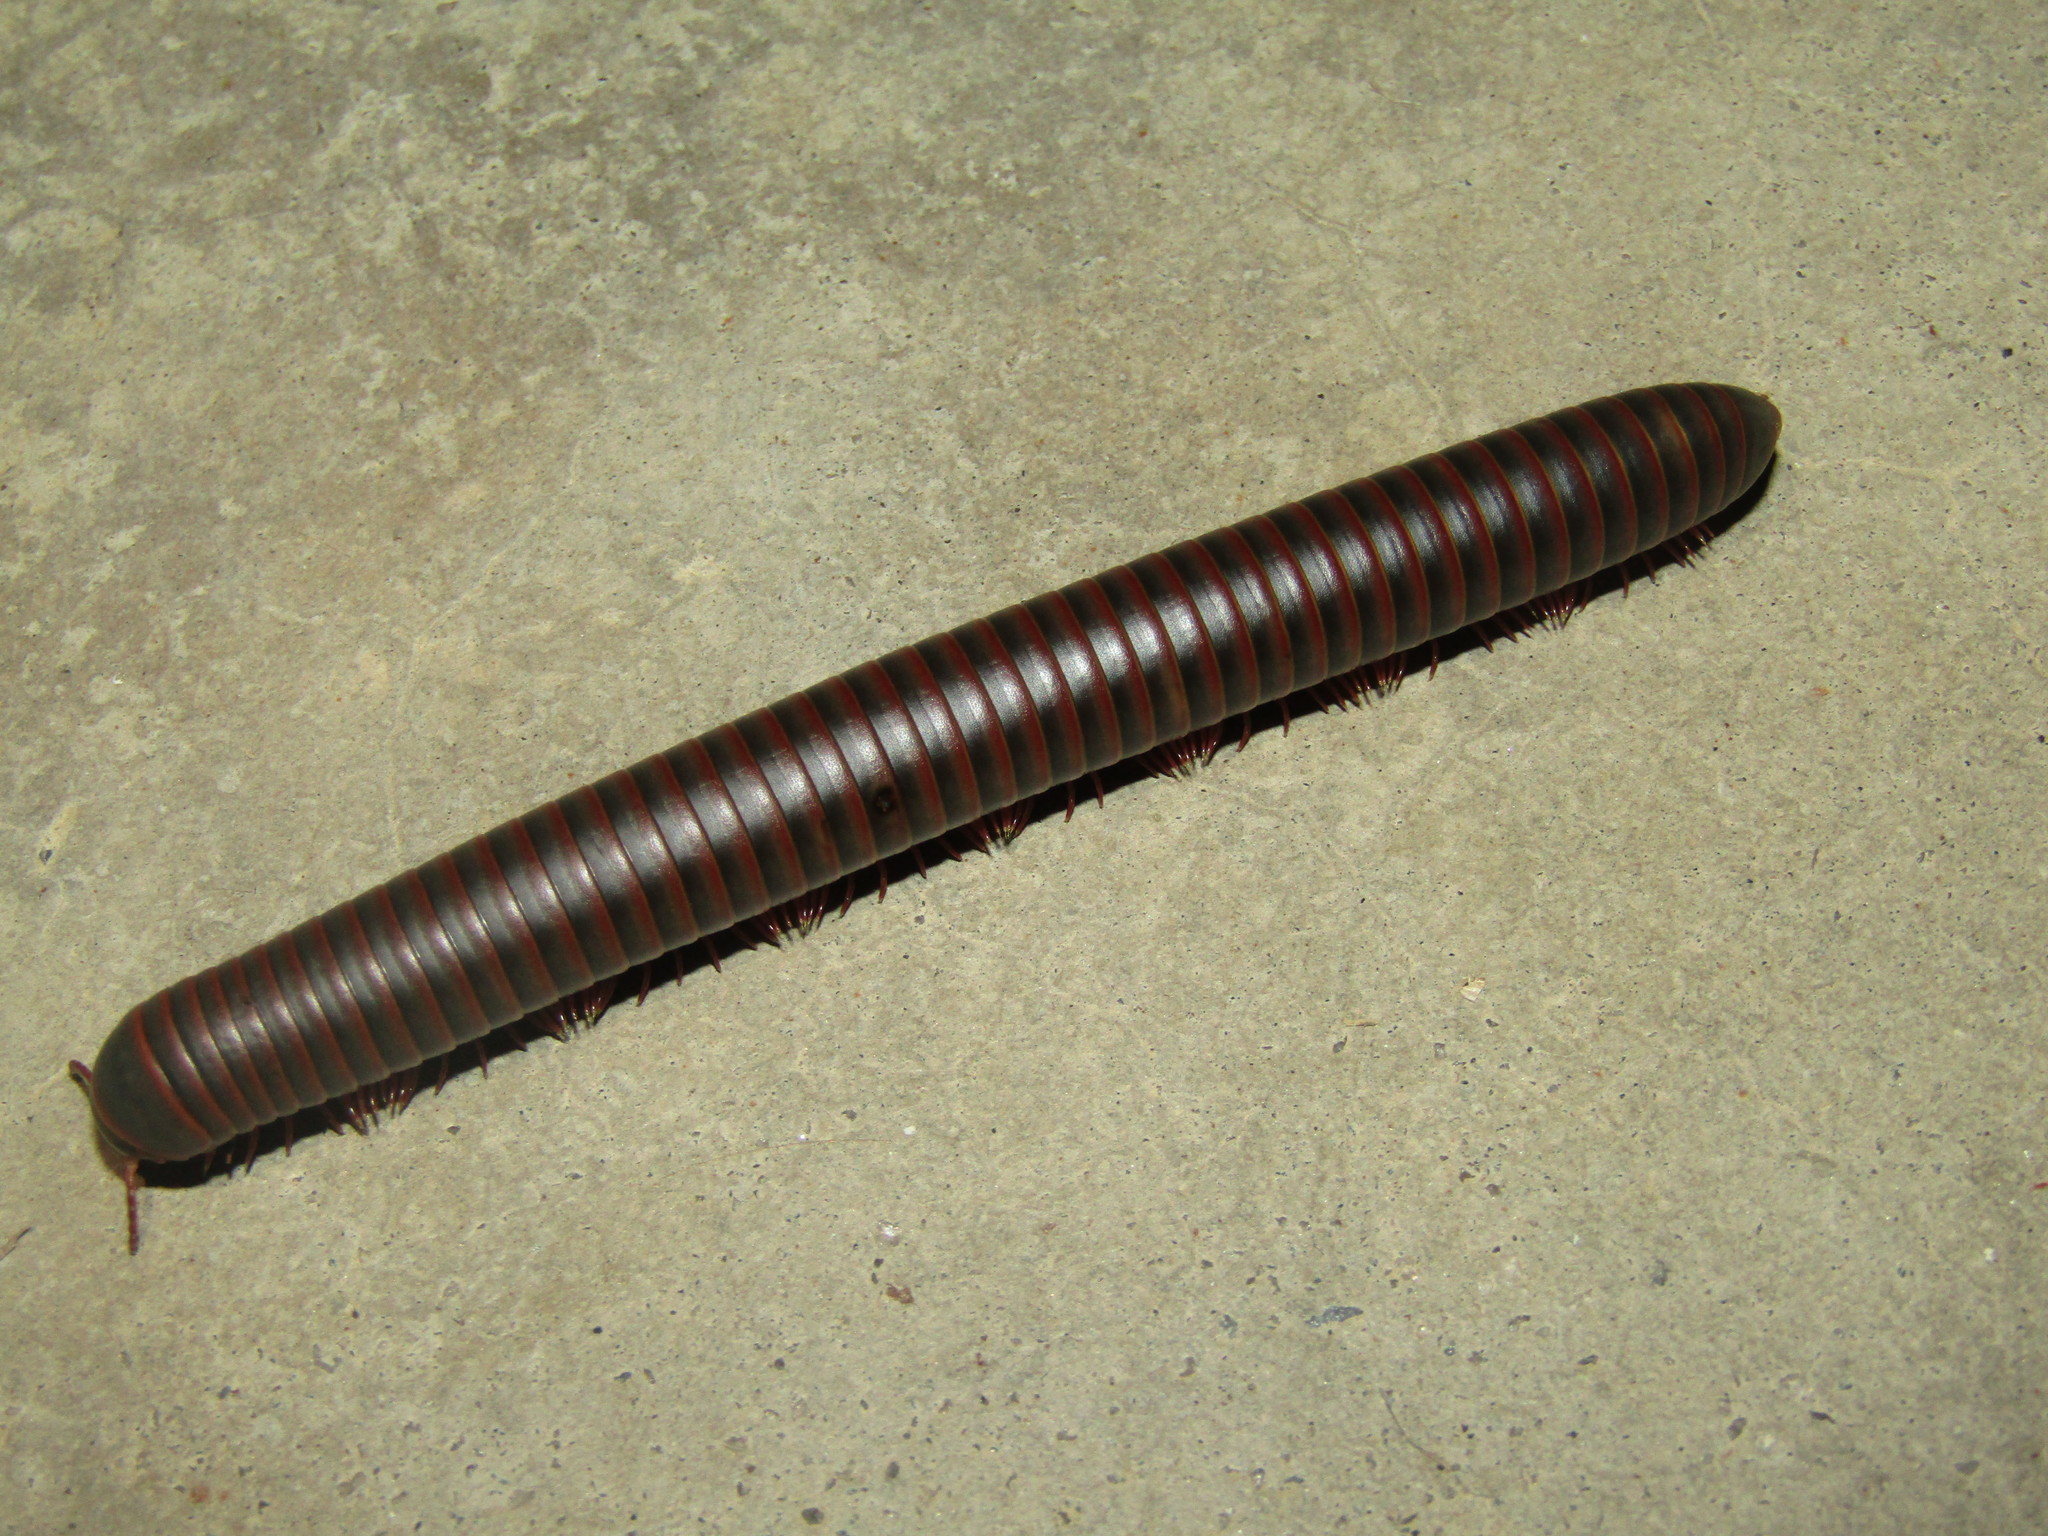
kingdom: Animalia
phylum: Arthropoda
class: Diplopoda
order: Spirobolida
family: Spirobolidae
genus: Narceus
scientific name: Narceus
